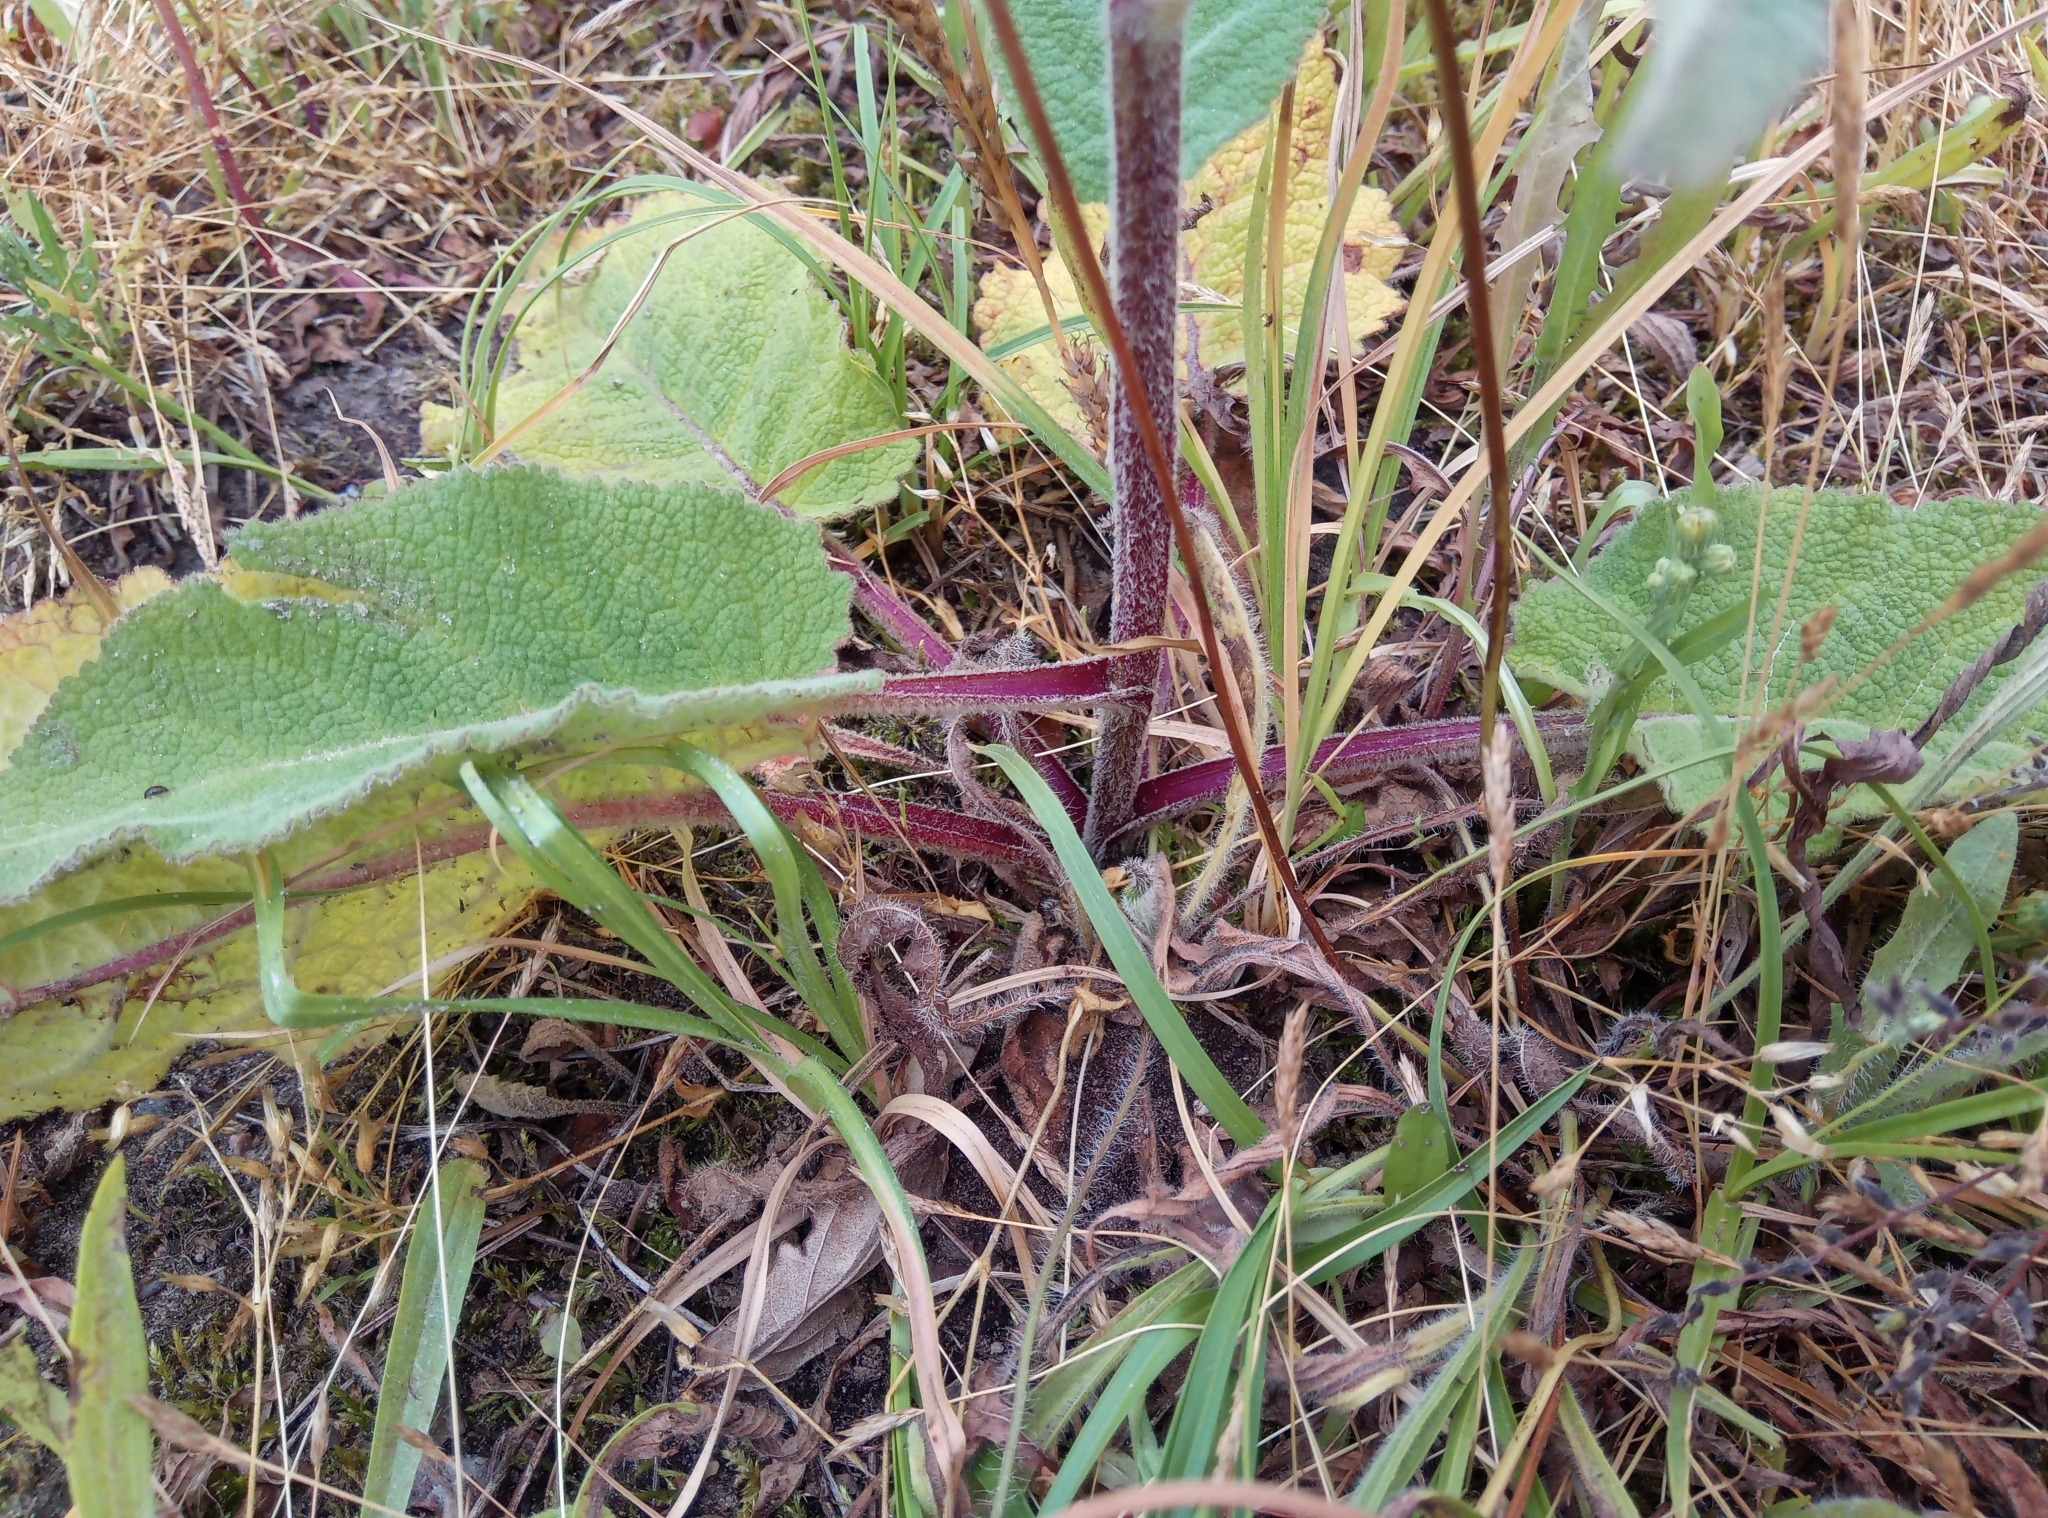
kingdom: Plantae
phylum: Tracheophyta
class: Magnoliopsida
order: Lamiales
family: Scrophulariaceae
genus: Verbascum
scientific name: Verbascum nigrum
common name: Dark mullein
